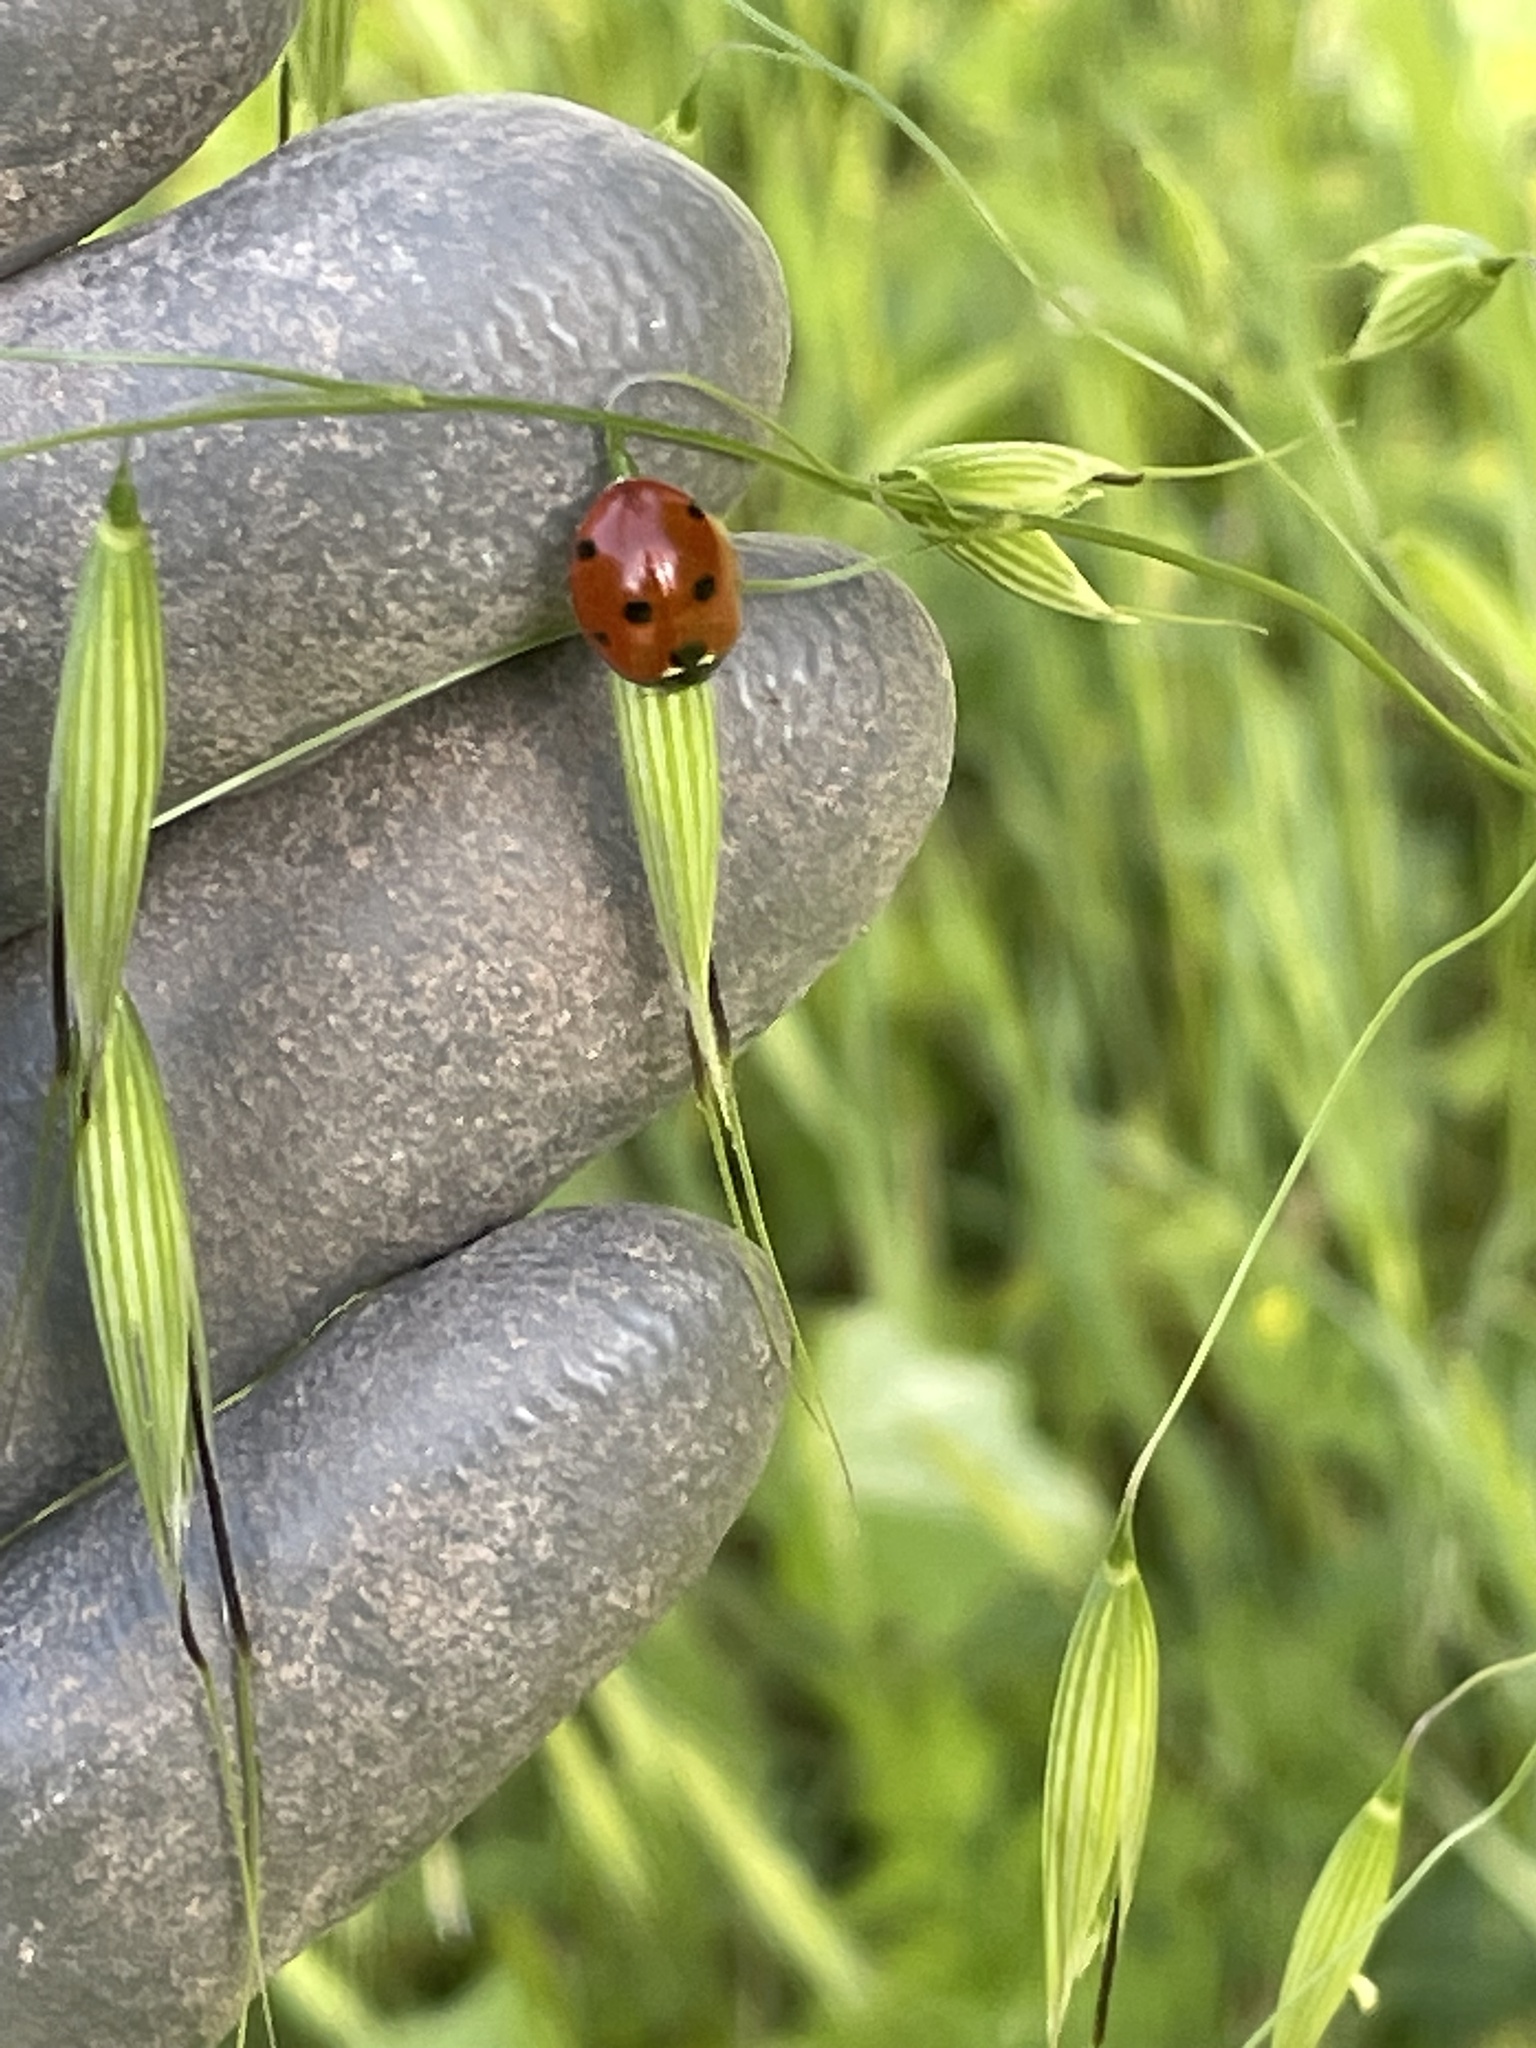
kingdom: Animalia
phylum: Arthropoda
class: Insecta
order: Coleoptera
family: Coccinellidae
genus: Coccinella
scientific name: Coccinella septempunctata
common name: Sevenspotted lady beetle
